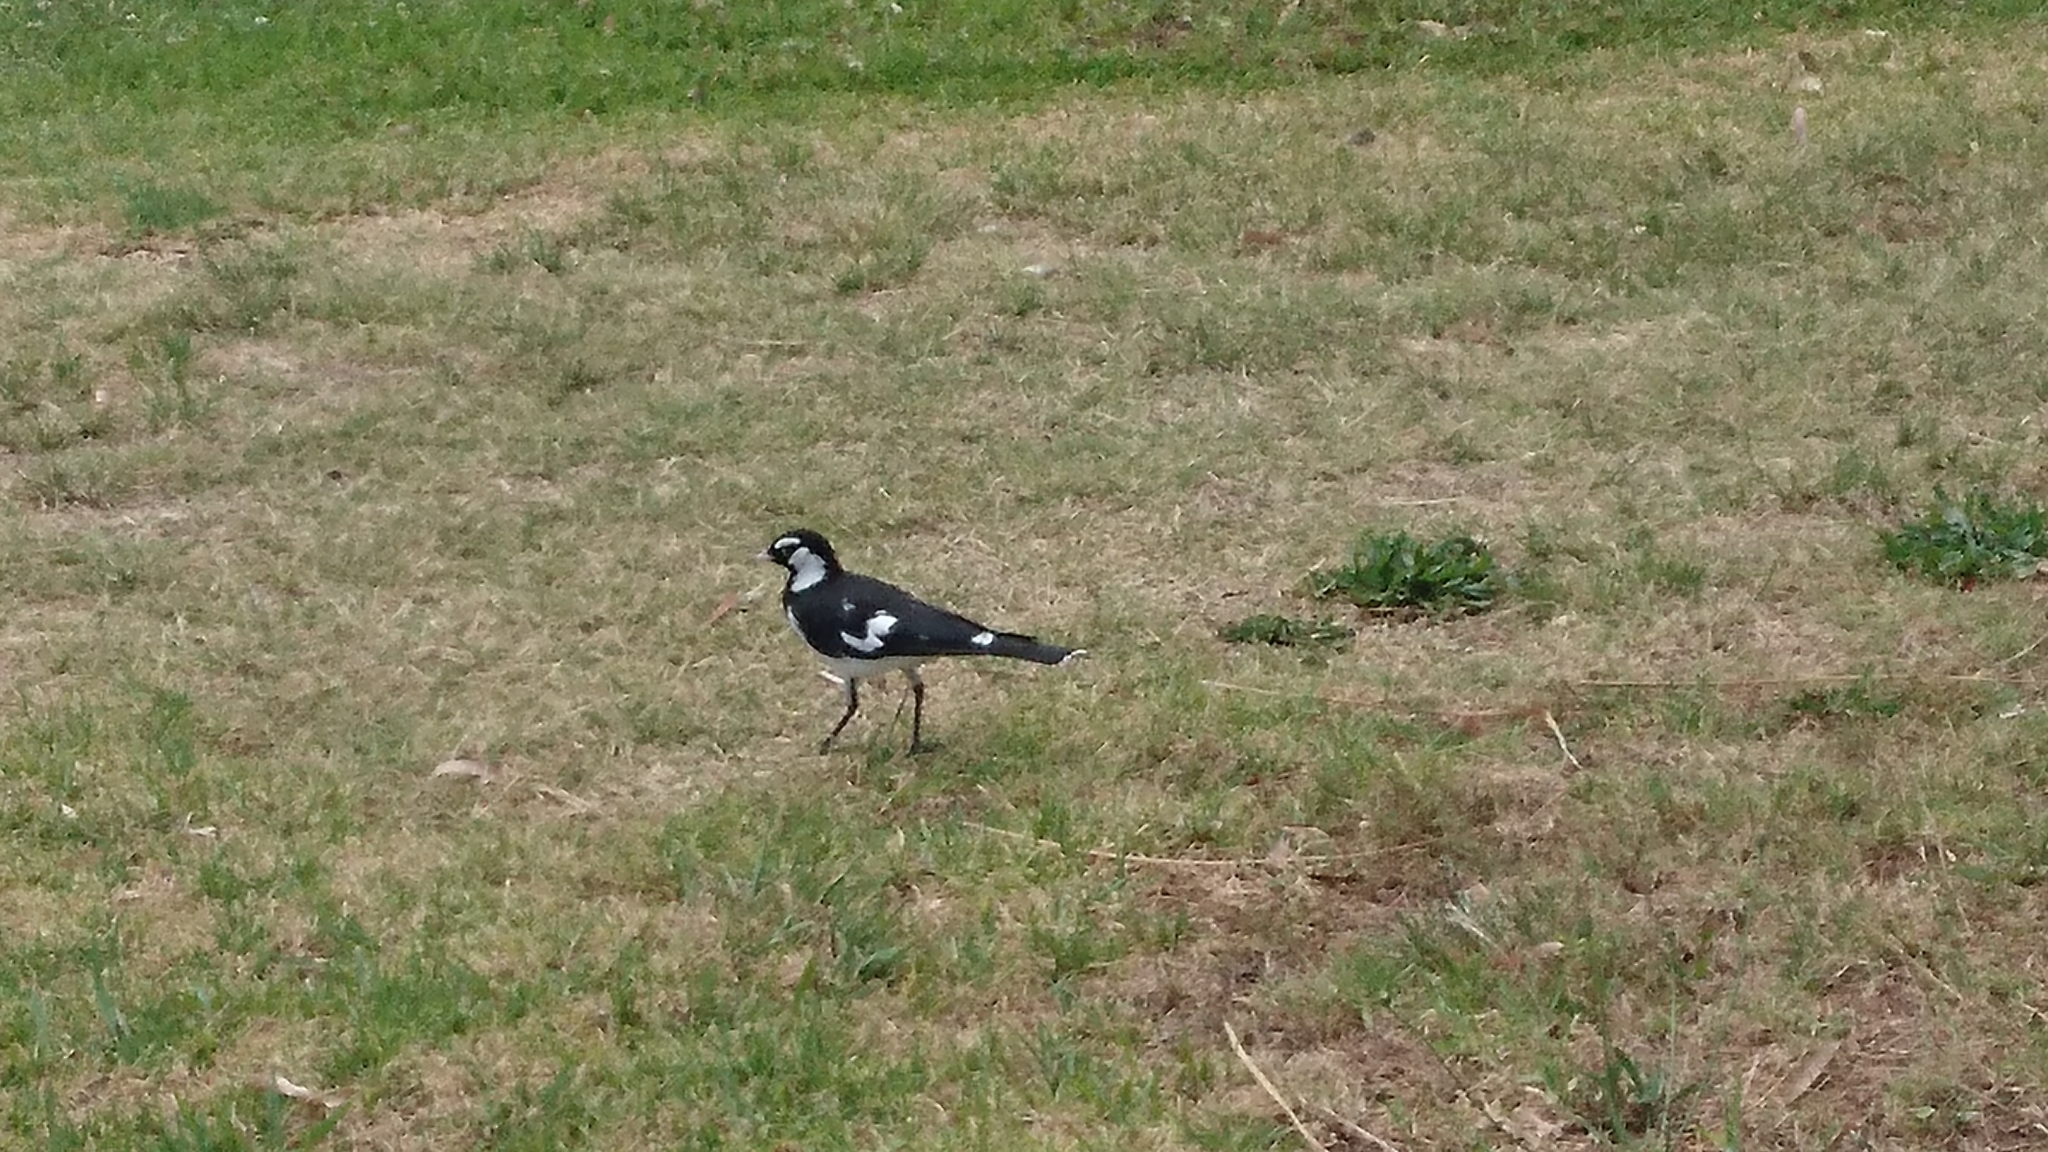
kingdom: Animalia
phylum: Chordata
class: Aves
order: Passeriformes
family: Monarchidae
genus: Grallina
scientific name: Grallina cyanoleuca
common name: Magpie-lark
